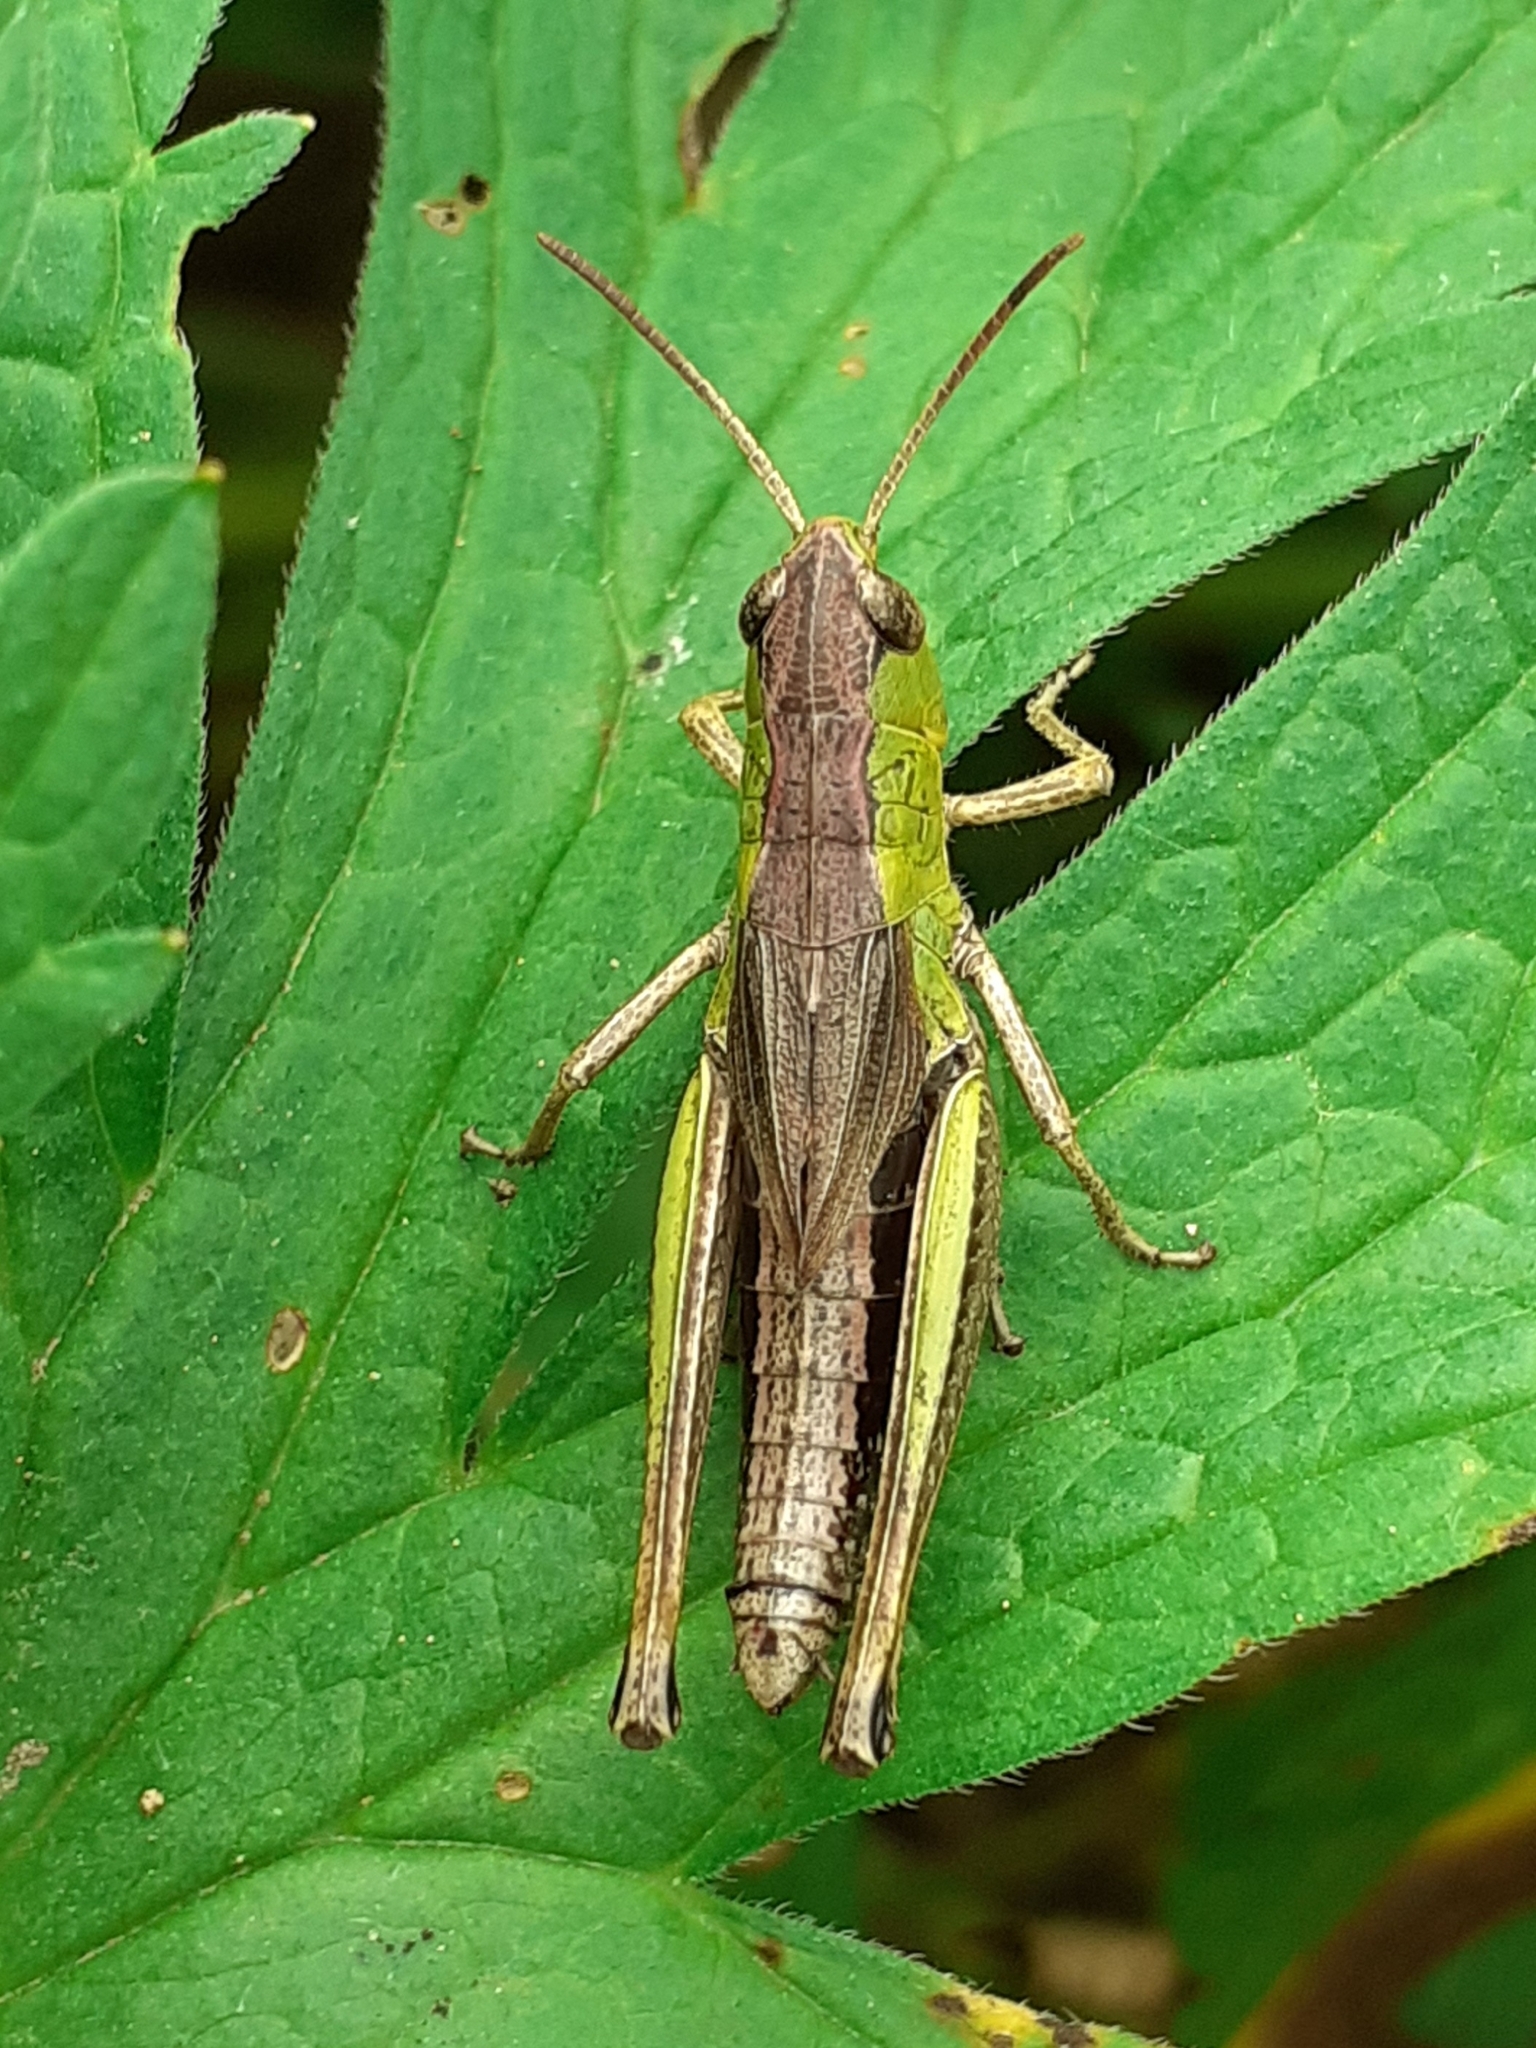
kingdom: Animalia
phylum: Arthropoda
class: Insecta
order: Orthoptera
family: Acrididae
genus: Pseudochorthippus
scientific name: Pseudochorthippus parallelus
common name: Meadow grasshopper
